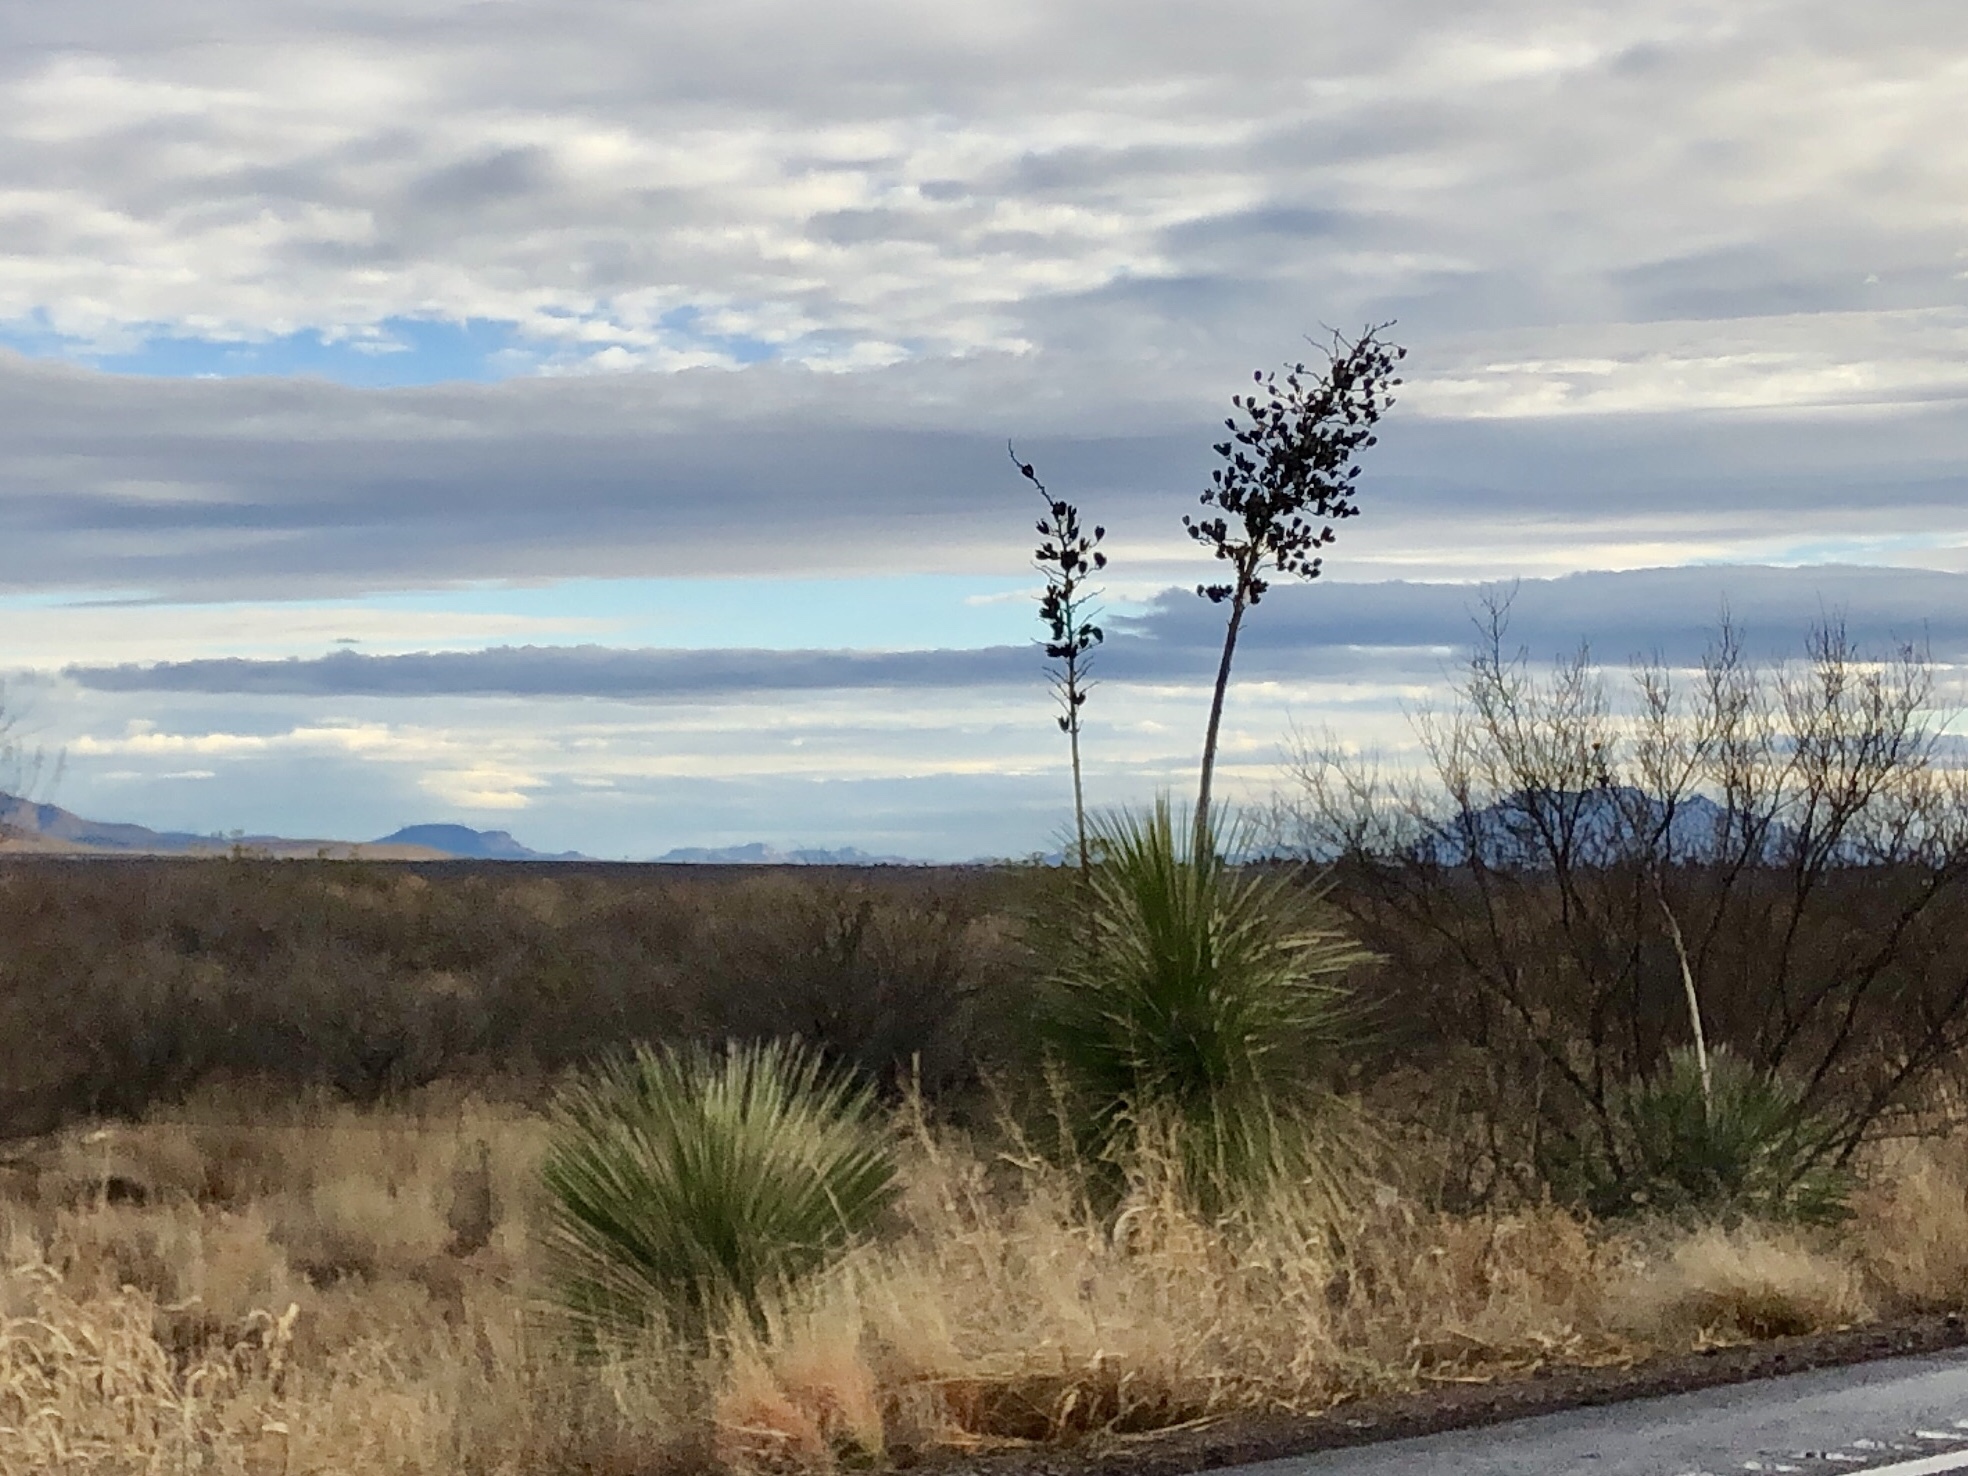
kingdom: Plantae
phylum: Tracheophyta
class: Liliopsida
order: Asparagales
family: Asparagaceae
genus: Yucca
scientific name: Yucca elata
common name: Palmella
